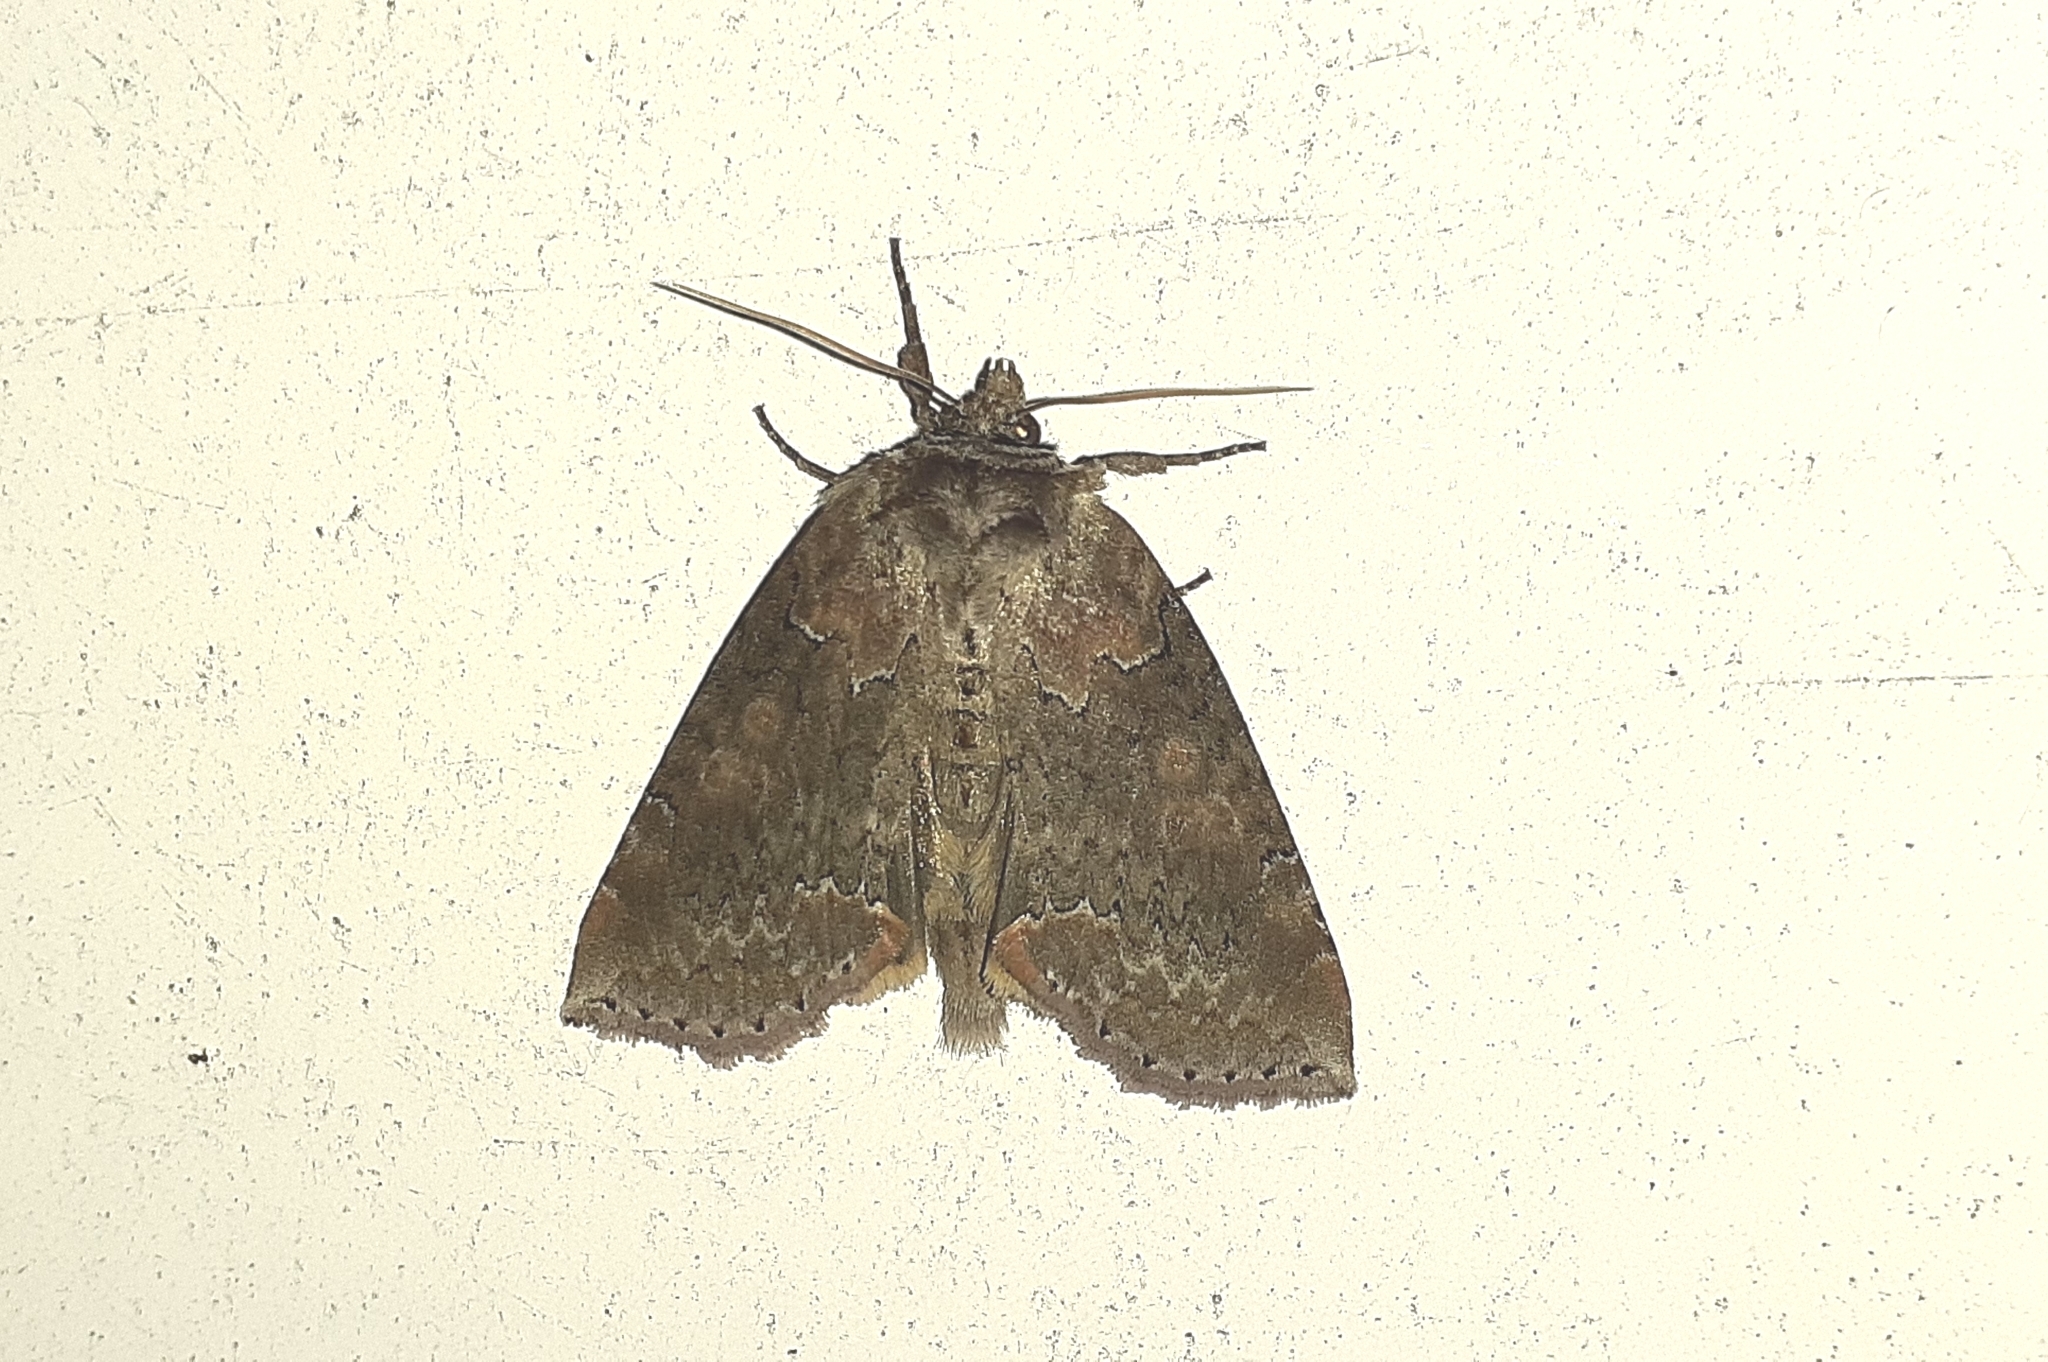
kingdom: Animalia
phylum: Arthropoda
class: Insecta
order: Lepidoptera
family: Drepanidae
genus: Pseudothyatira
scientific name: Pseudothyatira cymatophoroides
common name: Tufted thyatirid moth
